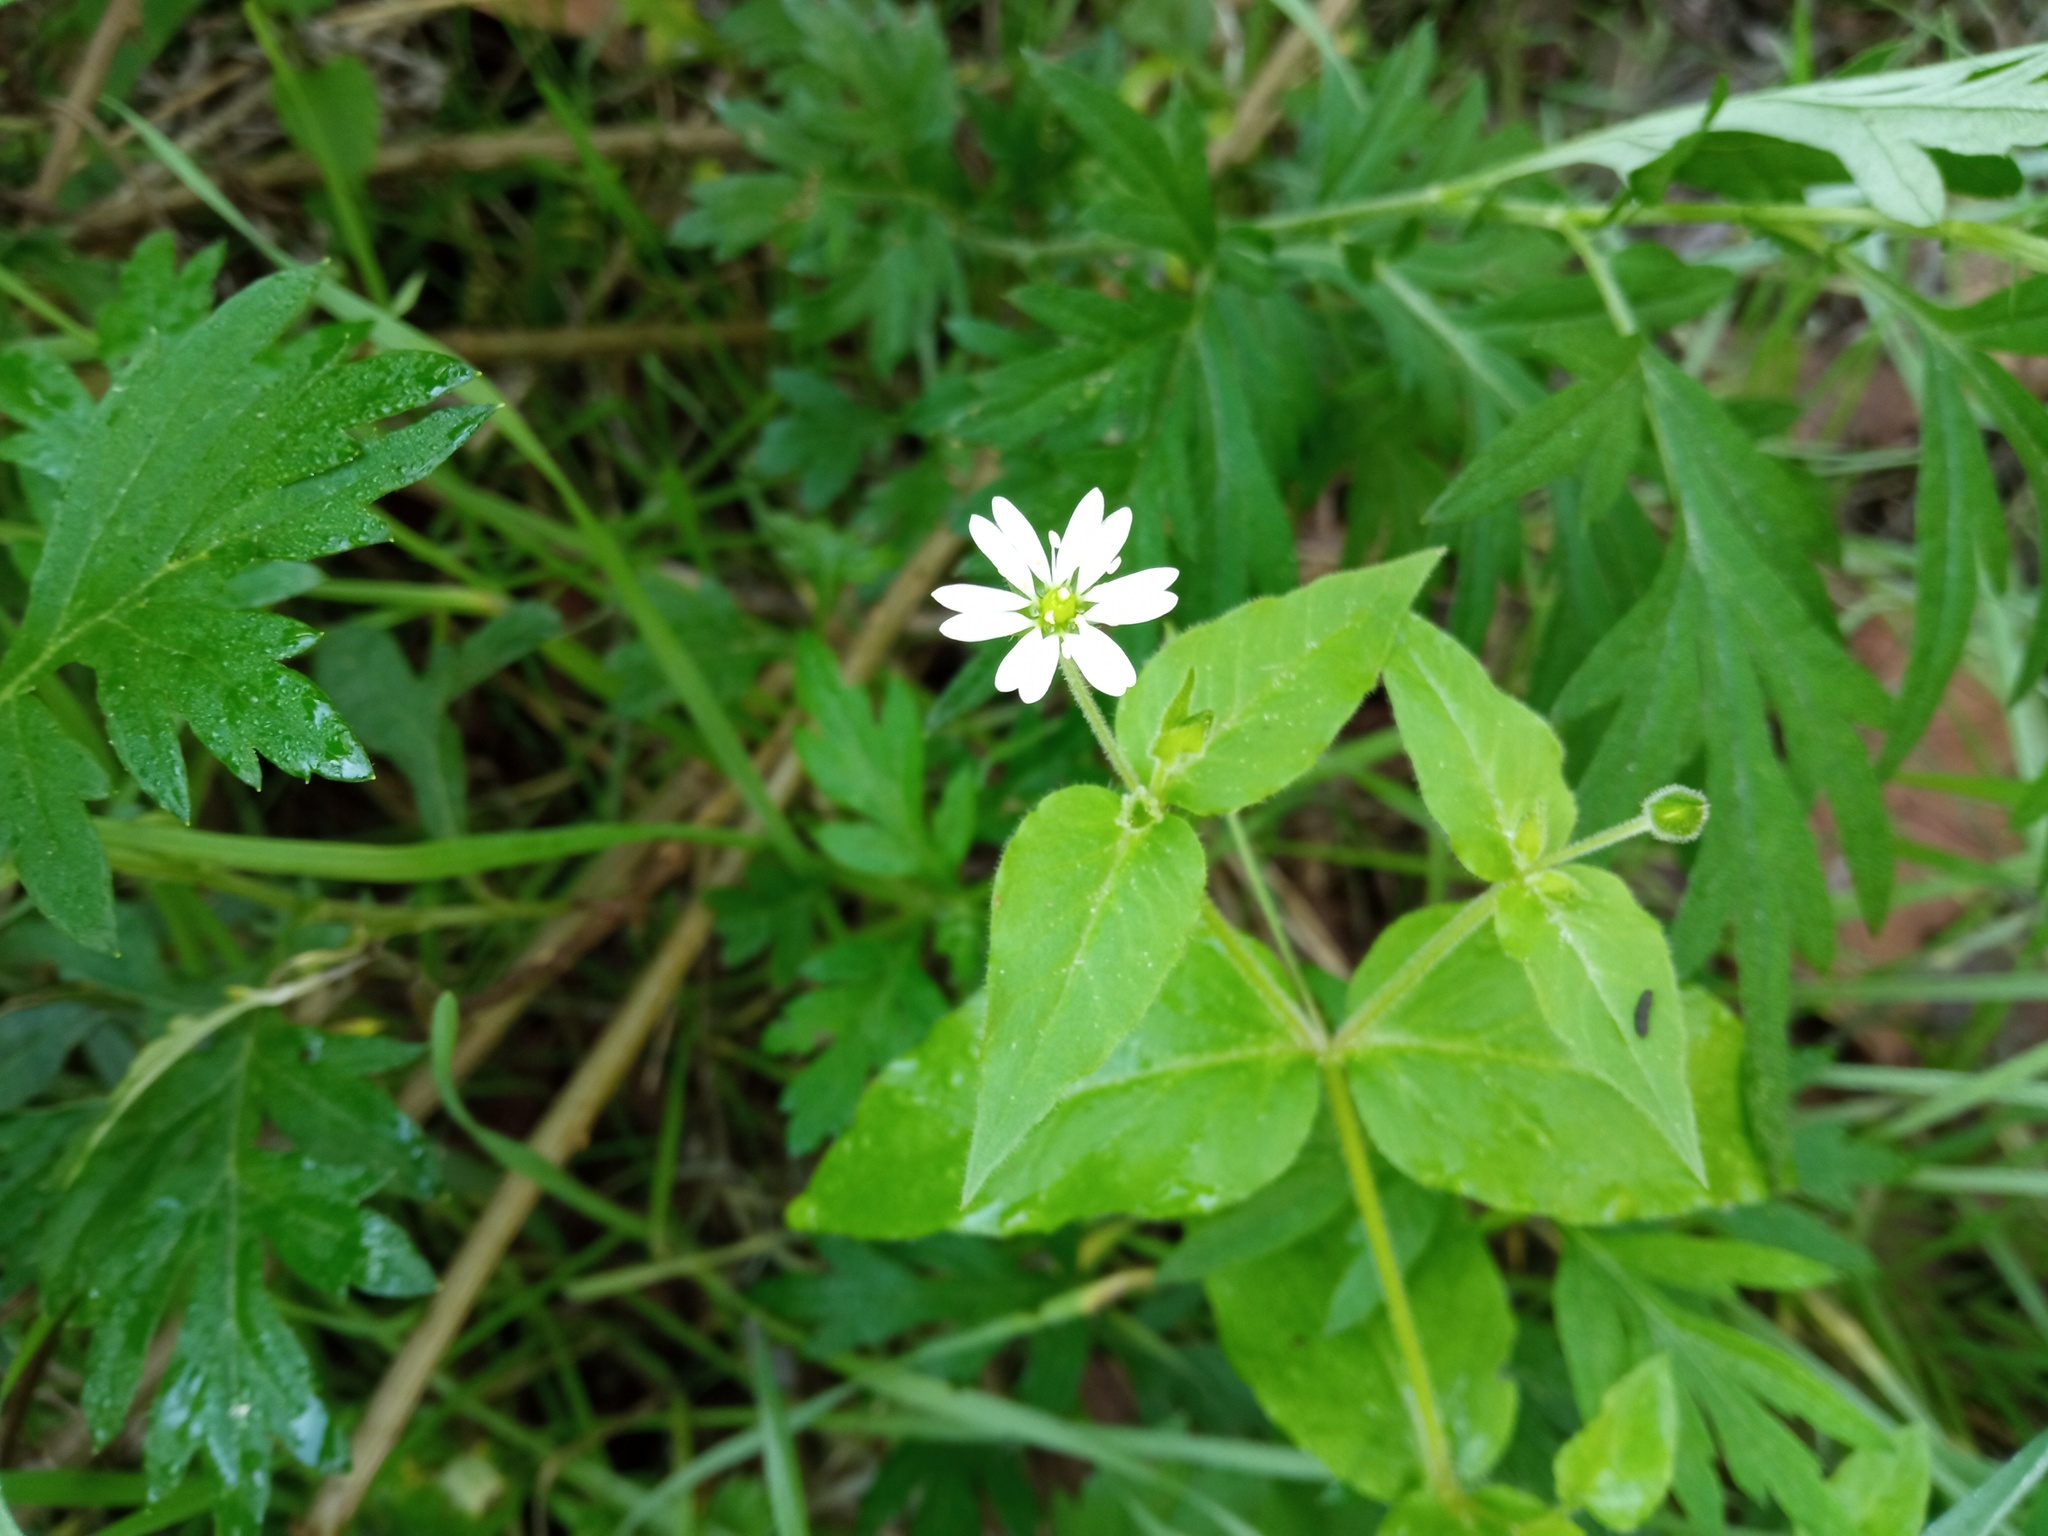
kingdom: Plantae
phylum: Tracheophyta
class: Magnoliopsida
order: Caryophyllales
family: Caryophyllaceae
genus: Stellaria
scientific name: Stellaria aquatica
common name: Water chickweed
